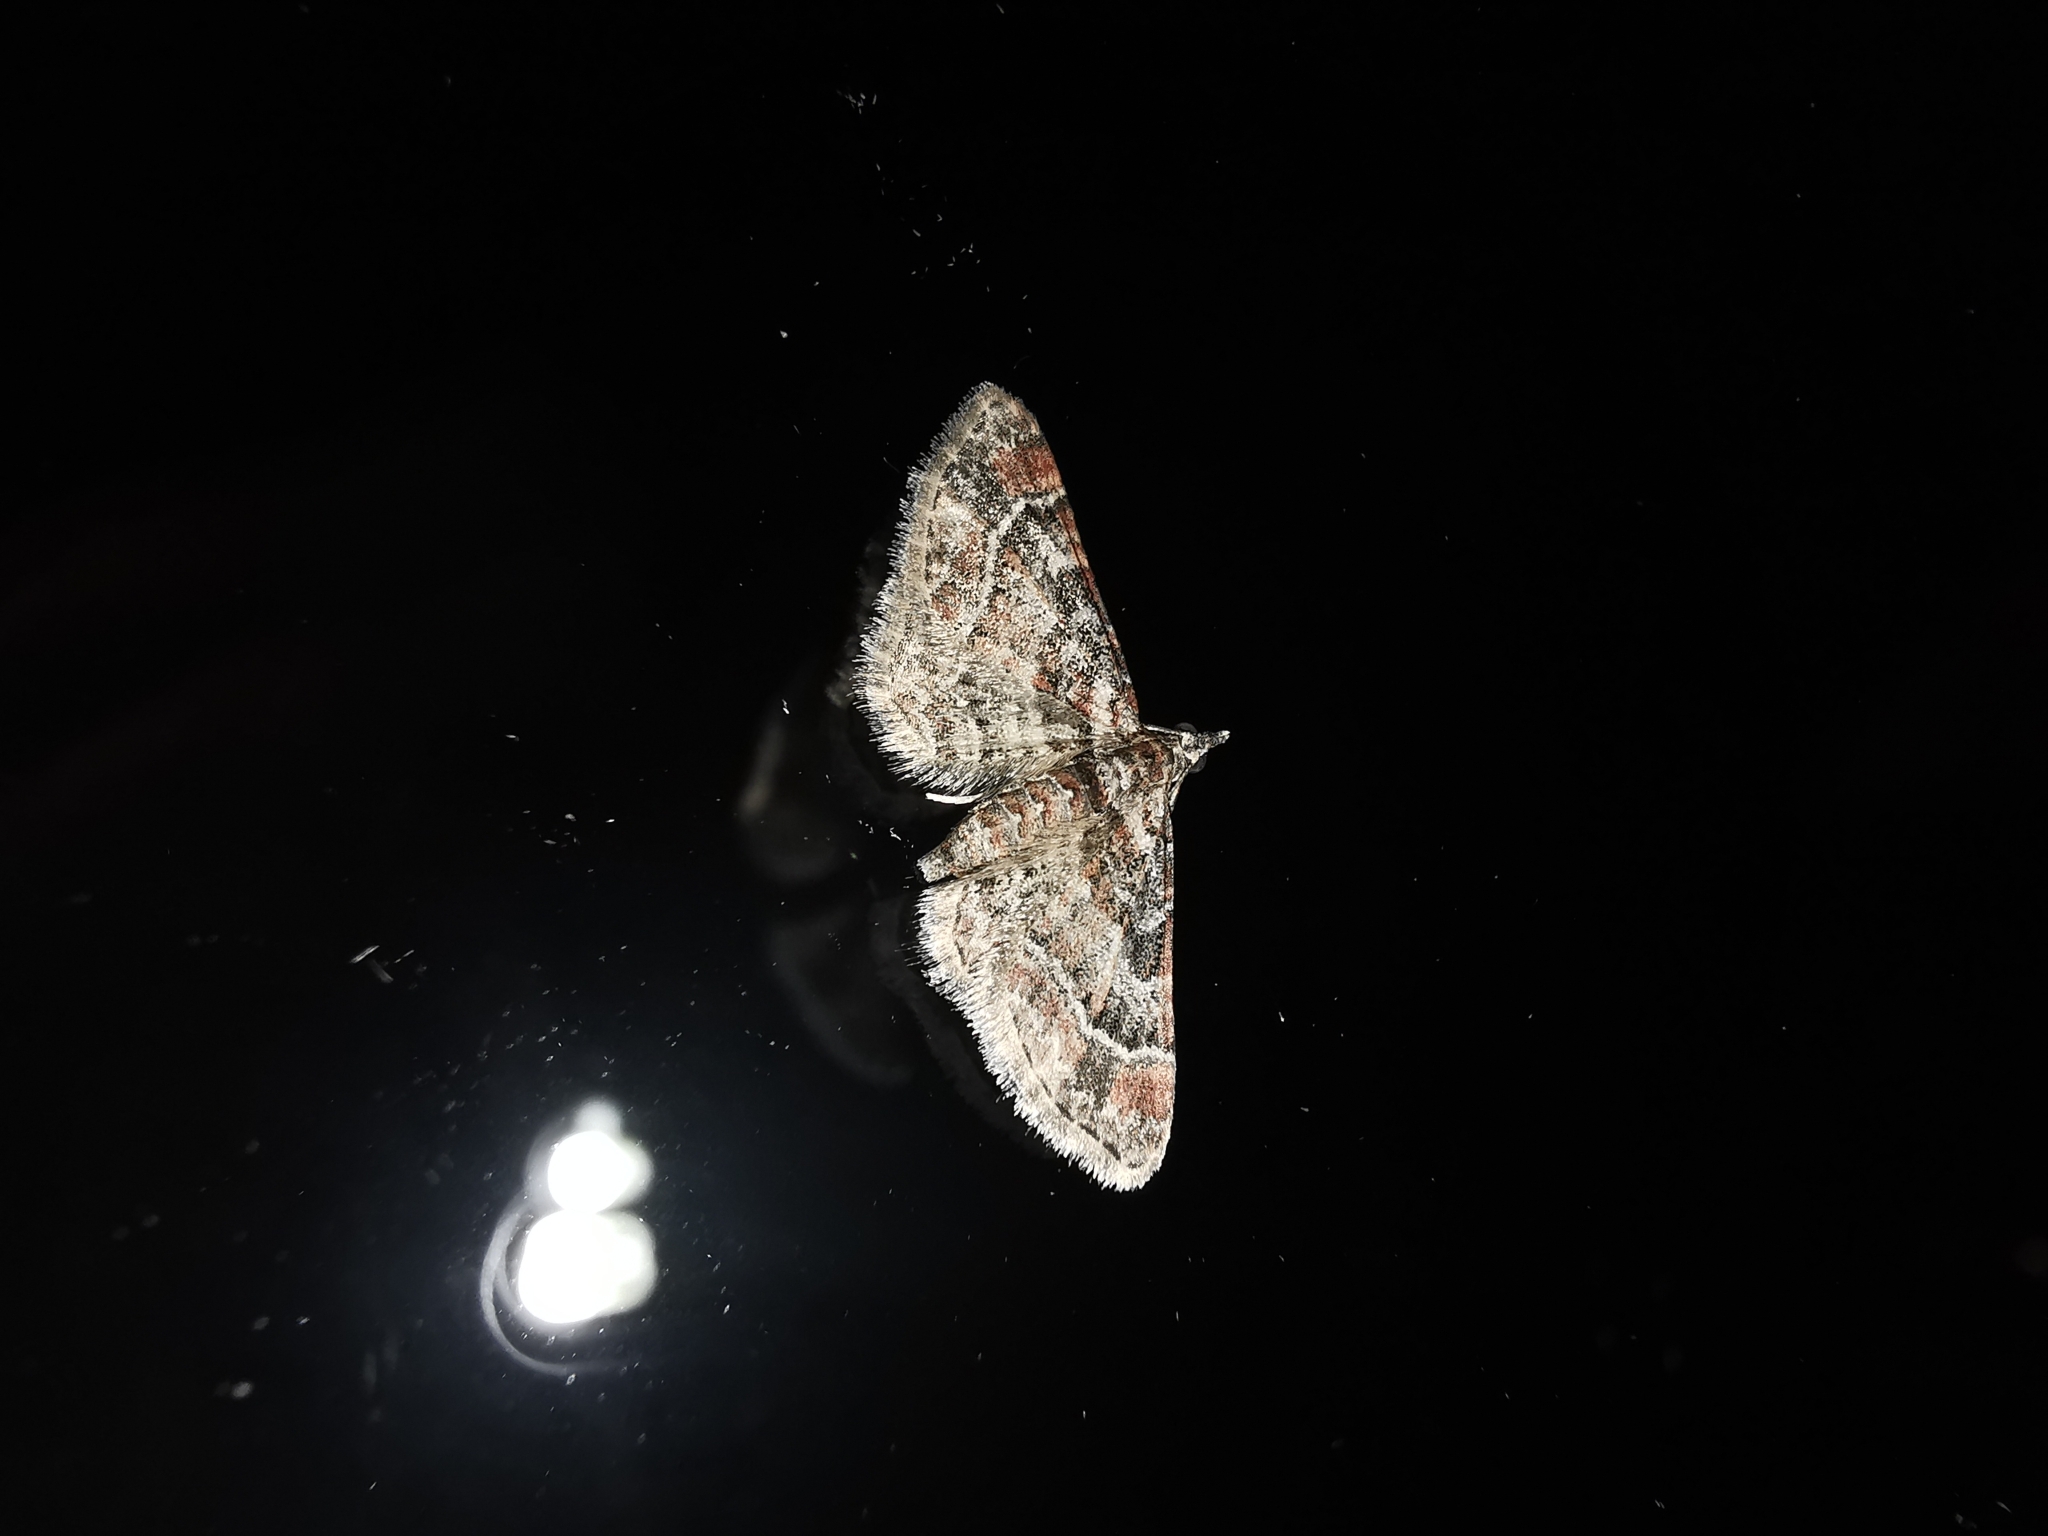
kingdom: Animalia
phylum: Arthropoda
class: Insecta
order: Lepidoptera
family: Geometridae
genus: Gymnoscelis
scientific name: Gymnoscelis rufifasciata
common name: Double-striped pug
